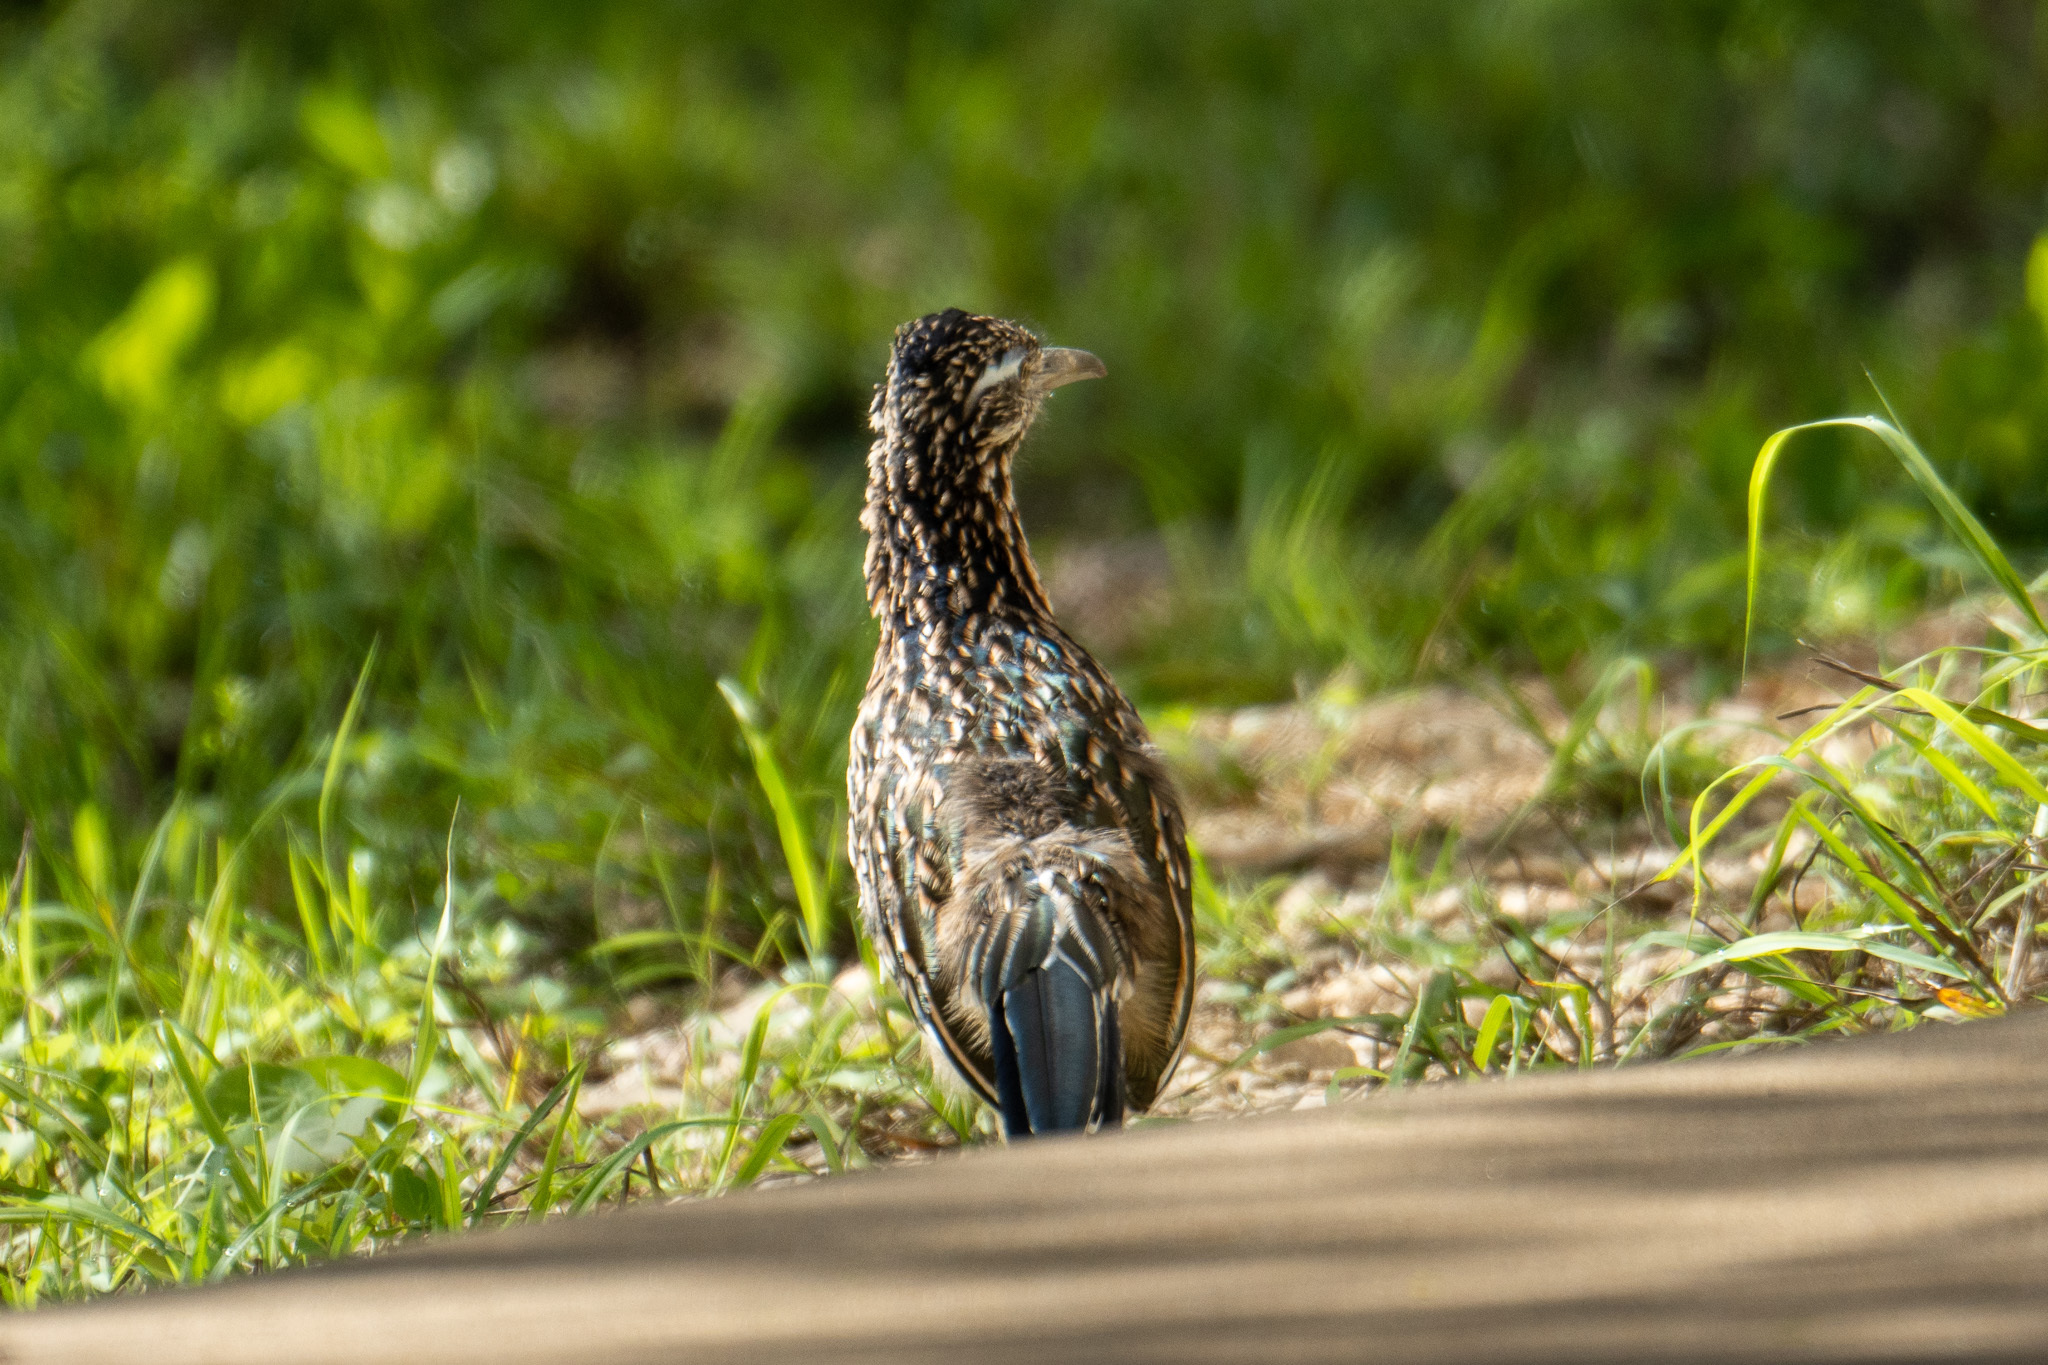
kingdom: Animalia
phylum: Chordata
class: Aves
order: Cuculiformes
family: Cuculidae
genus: Geococcyx
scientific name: Geococcyx californianus
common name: Greater roadrunner
